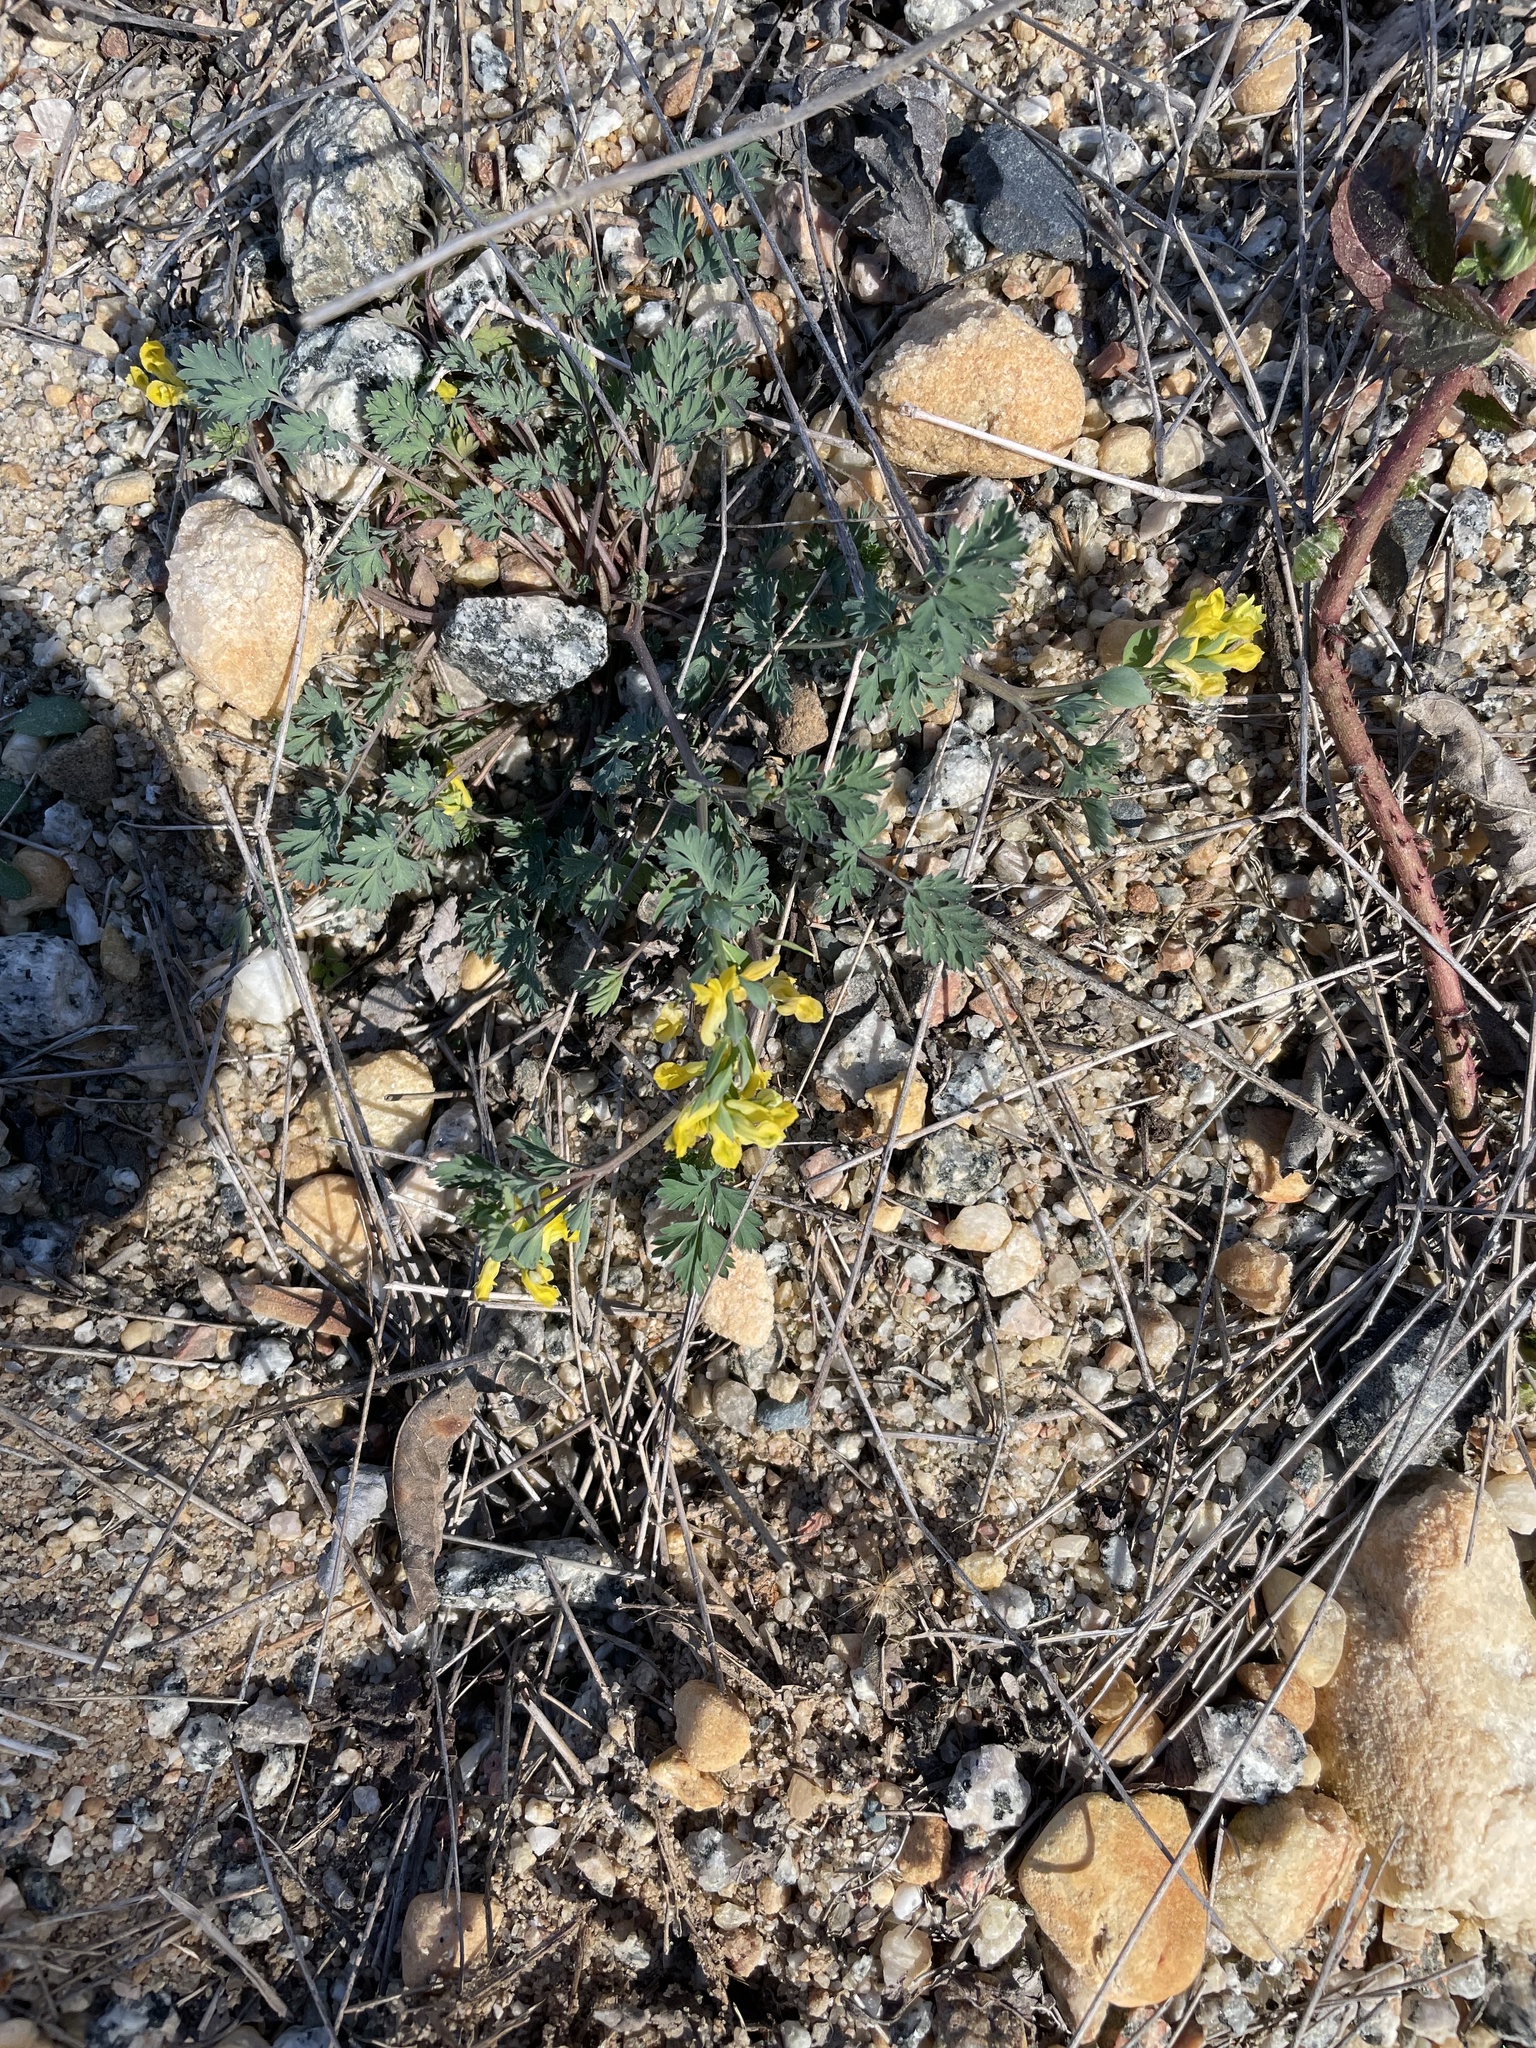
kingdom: Plantae
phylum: Tracheophyta
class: Magnoliopsida
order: Ranunculales
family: Papaveraceae
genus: Corydalis
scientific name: Corydalis flavula
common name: Yellow corydalis
